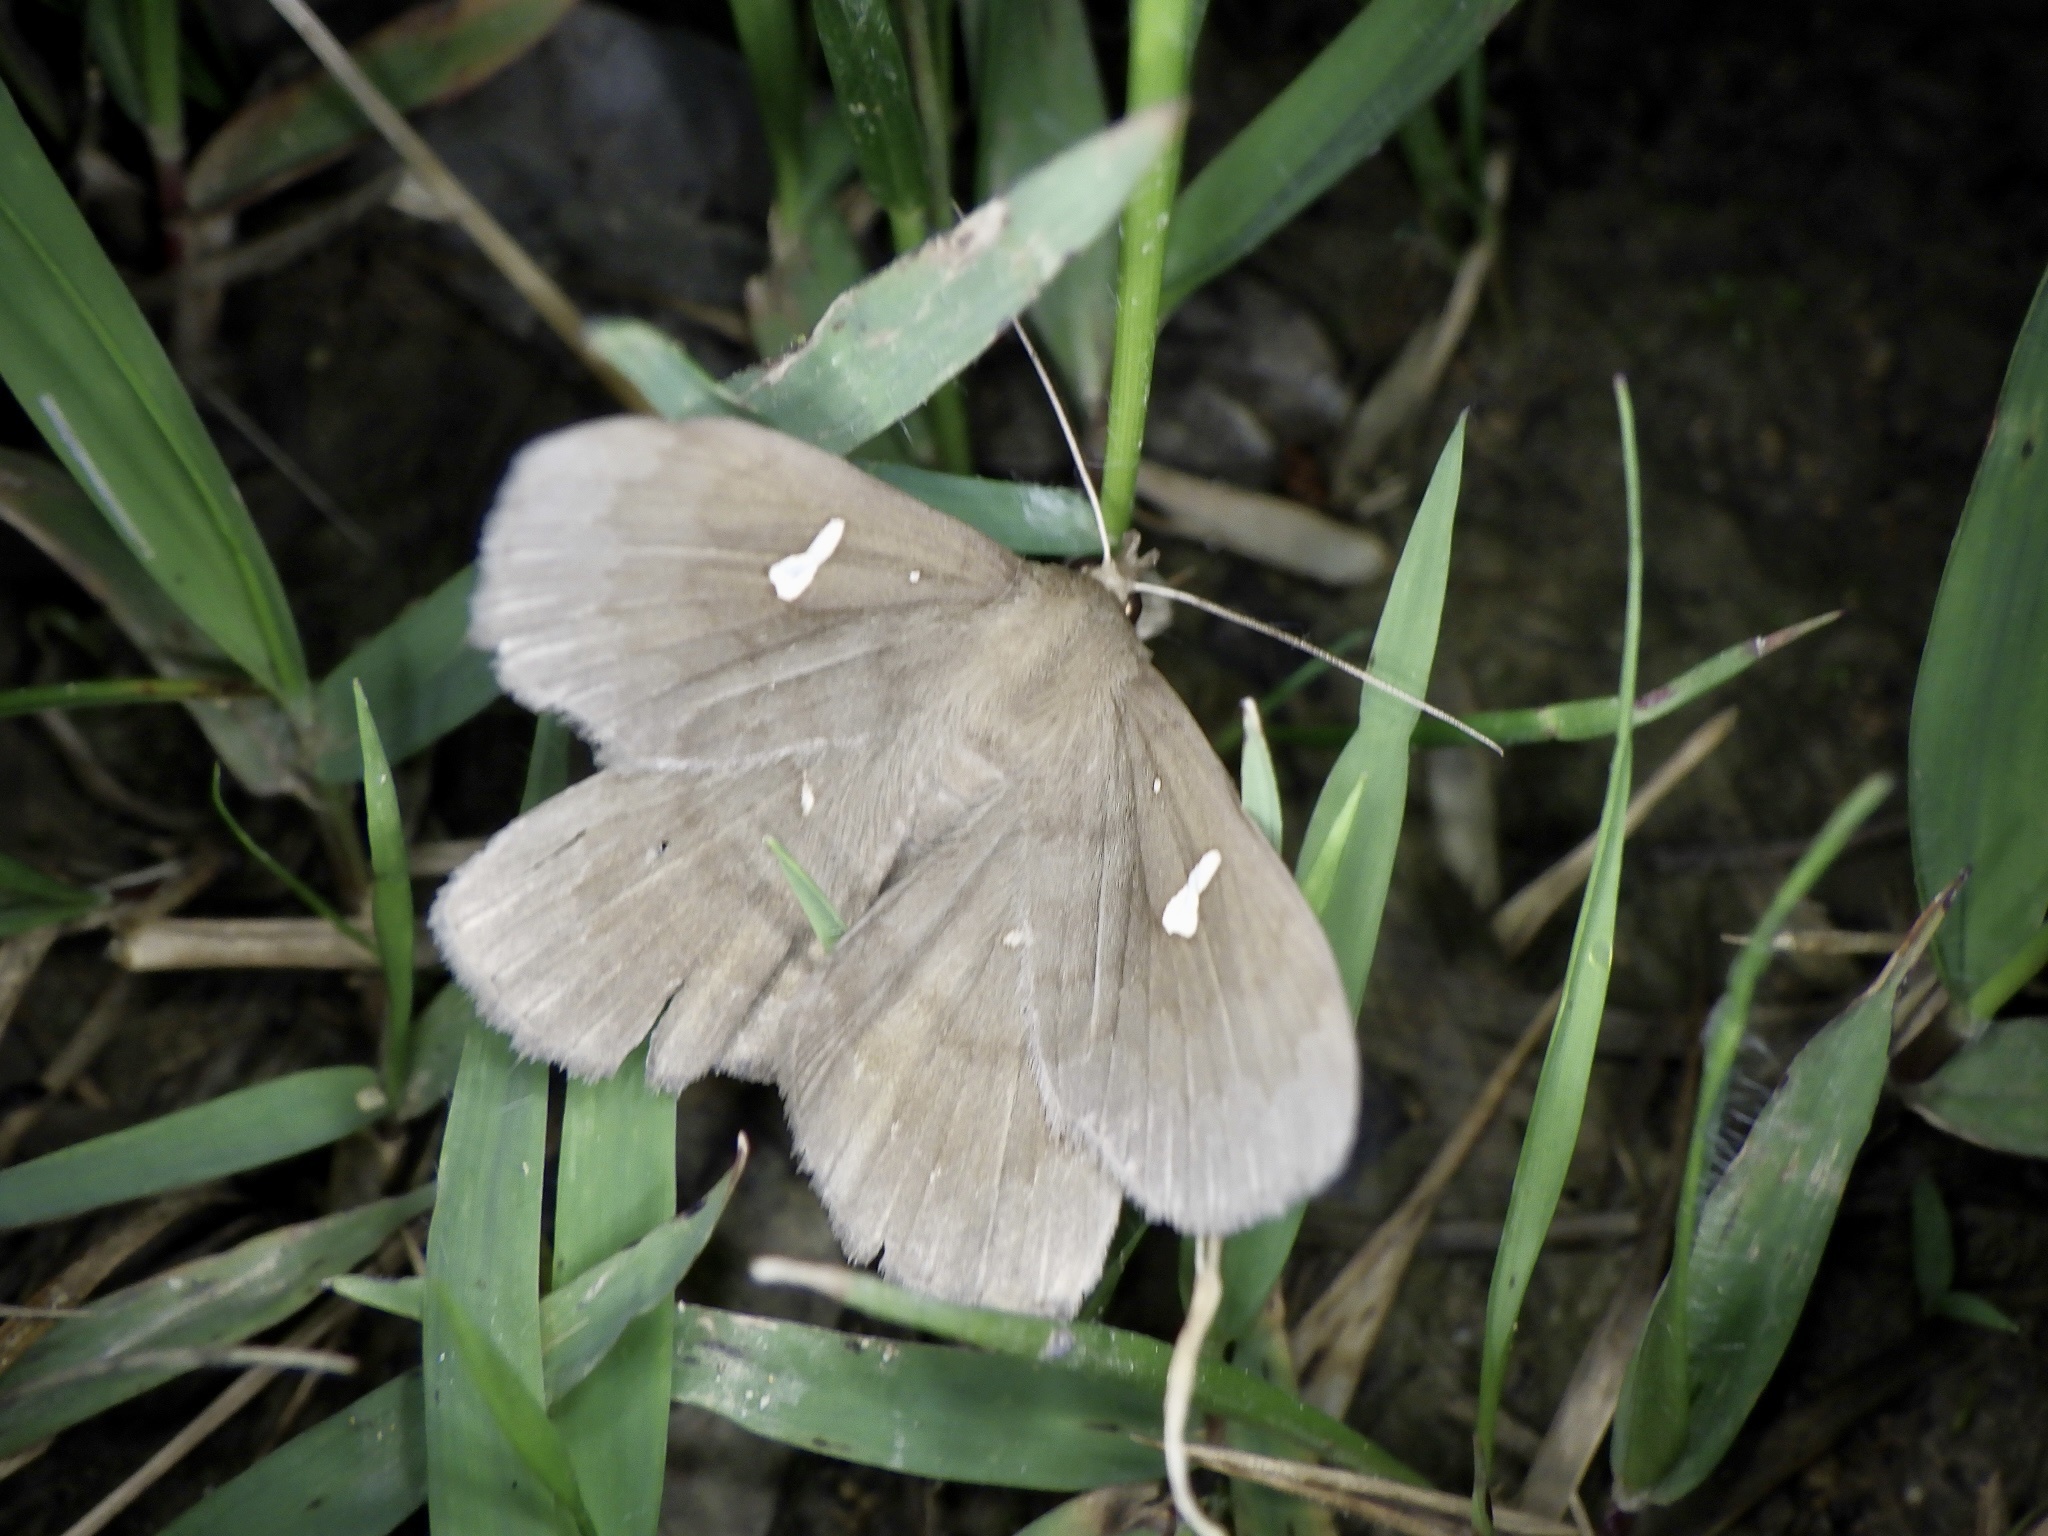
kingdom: Animalia
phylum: Arthropoda
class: Insecta
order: Lepidoptera
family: Erebidae
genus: Edessena
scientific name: Edessena hamada
